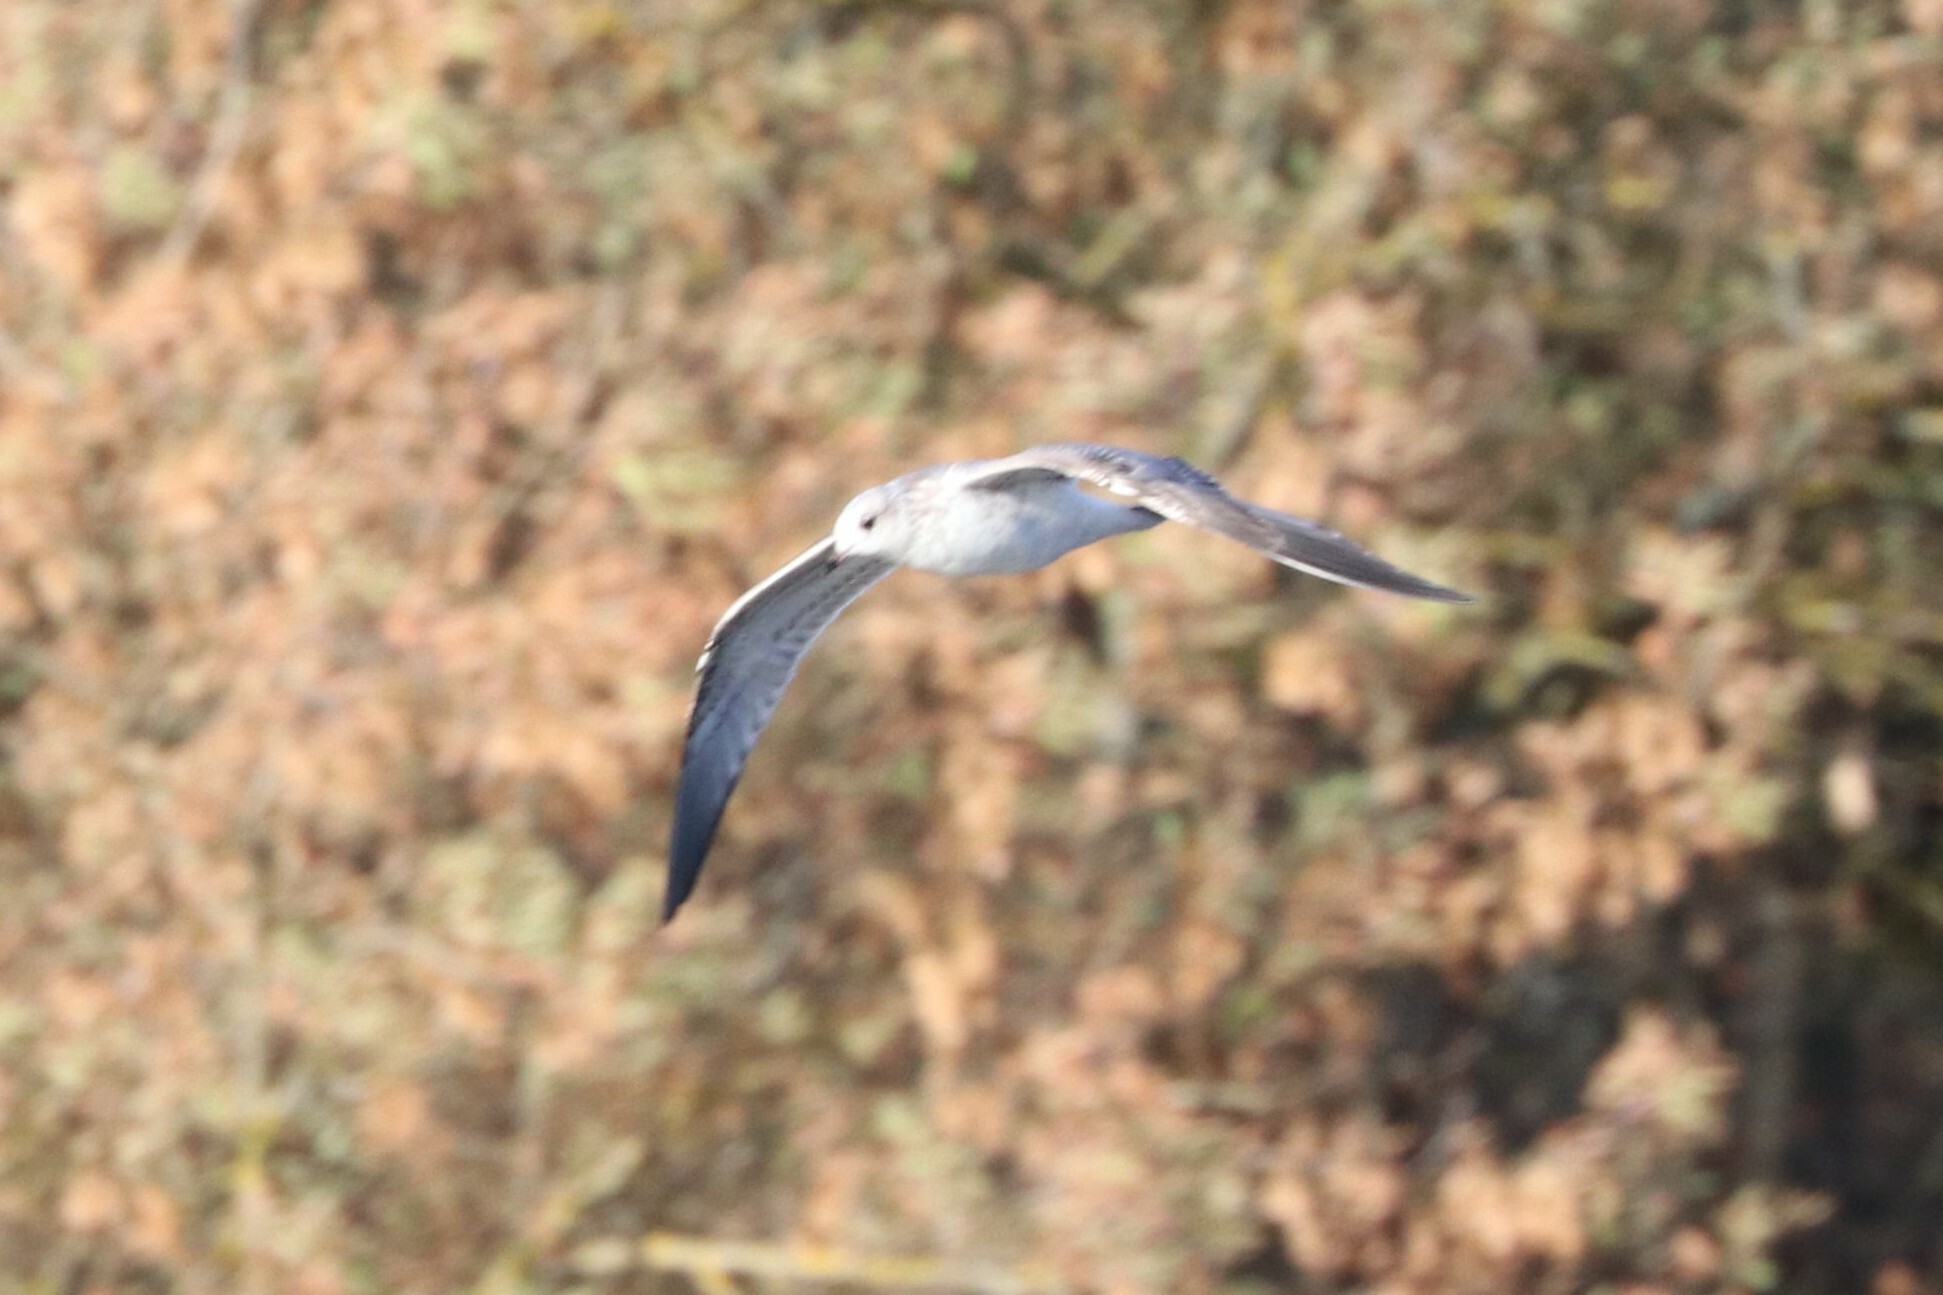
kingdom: Animalia
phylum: Chordata
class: Aves
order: Charadriiformes
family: Laridae
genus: Larus
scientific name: Larus canus
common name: Mew gull
